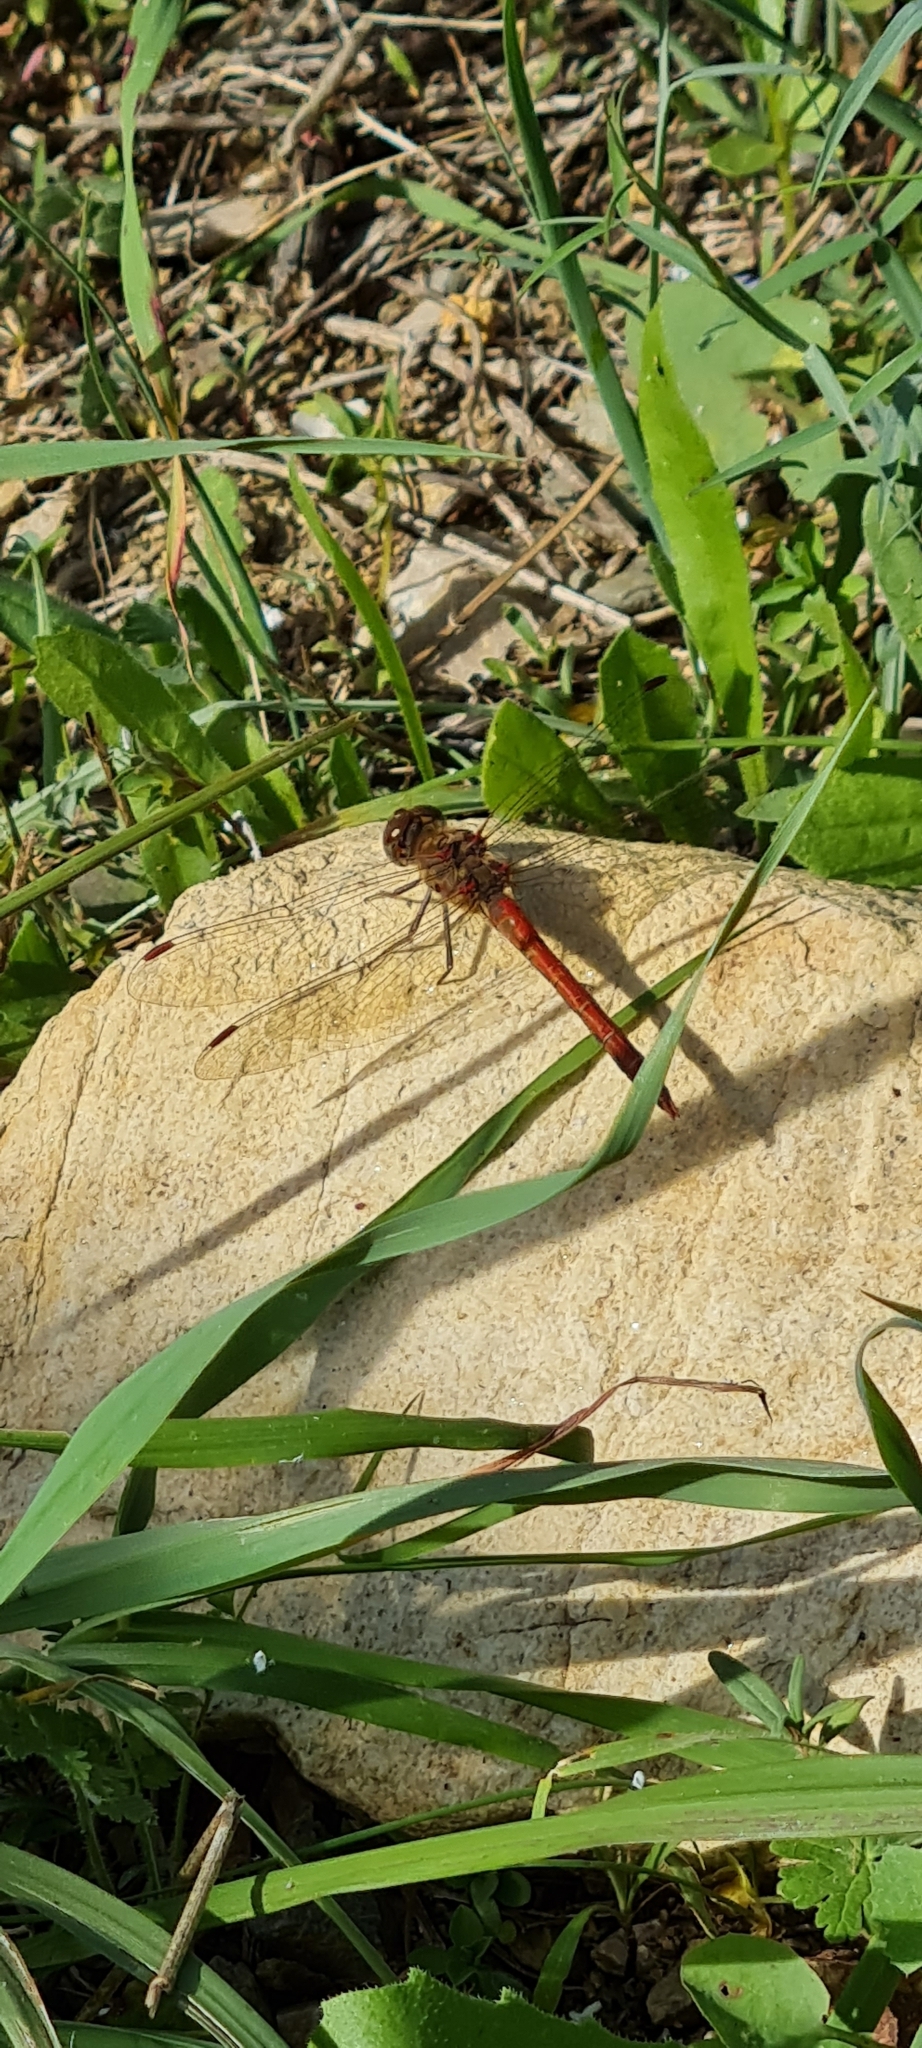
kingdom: Animalia
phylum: Arthropoda
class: Insecta
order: Odonata
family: Libellulidae
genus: Sympetrum
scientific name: Sympetrum striolatum
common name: Common darter
